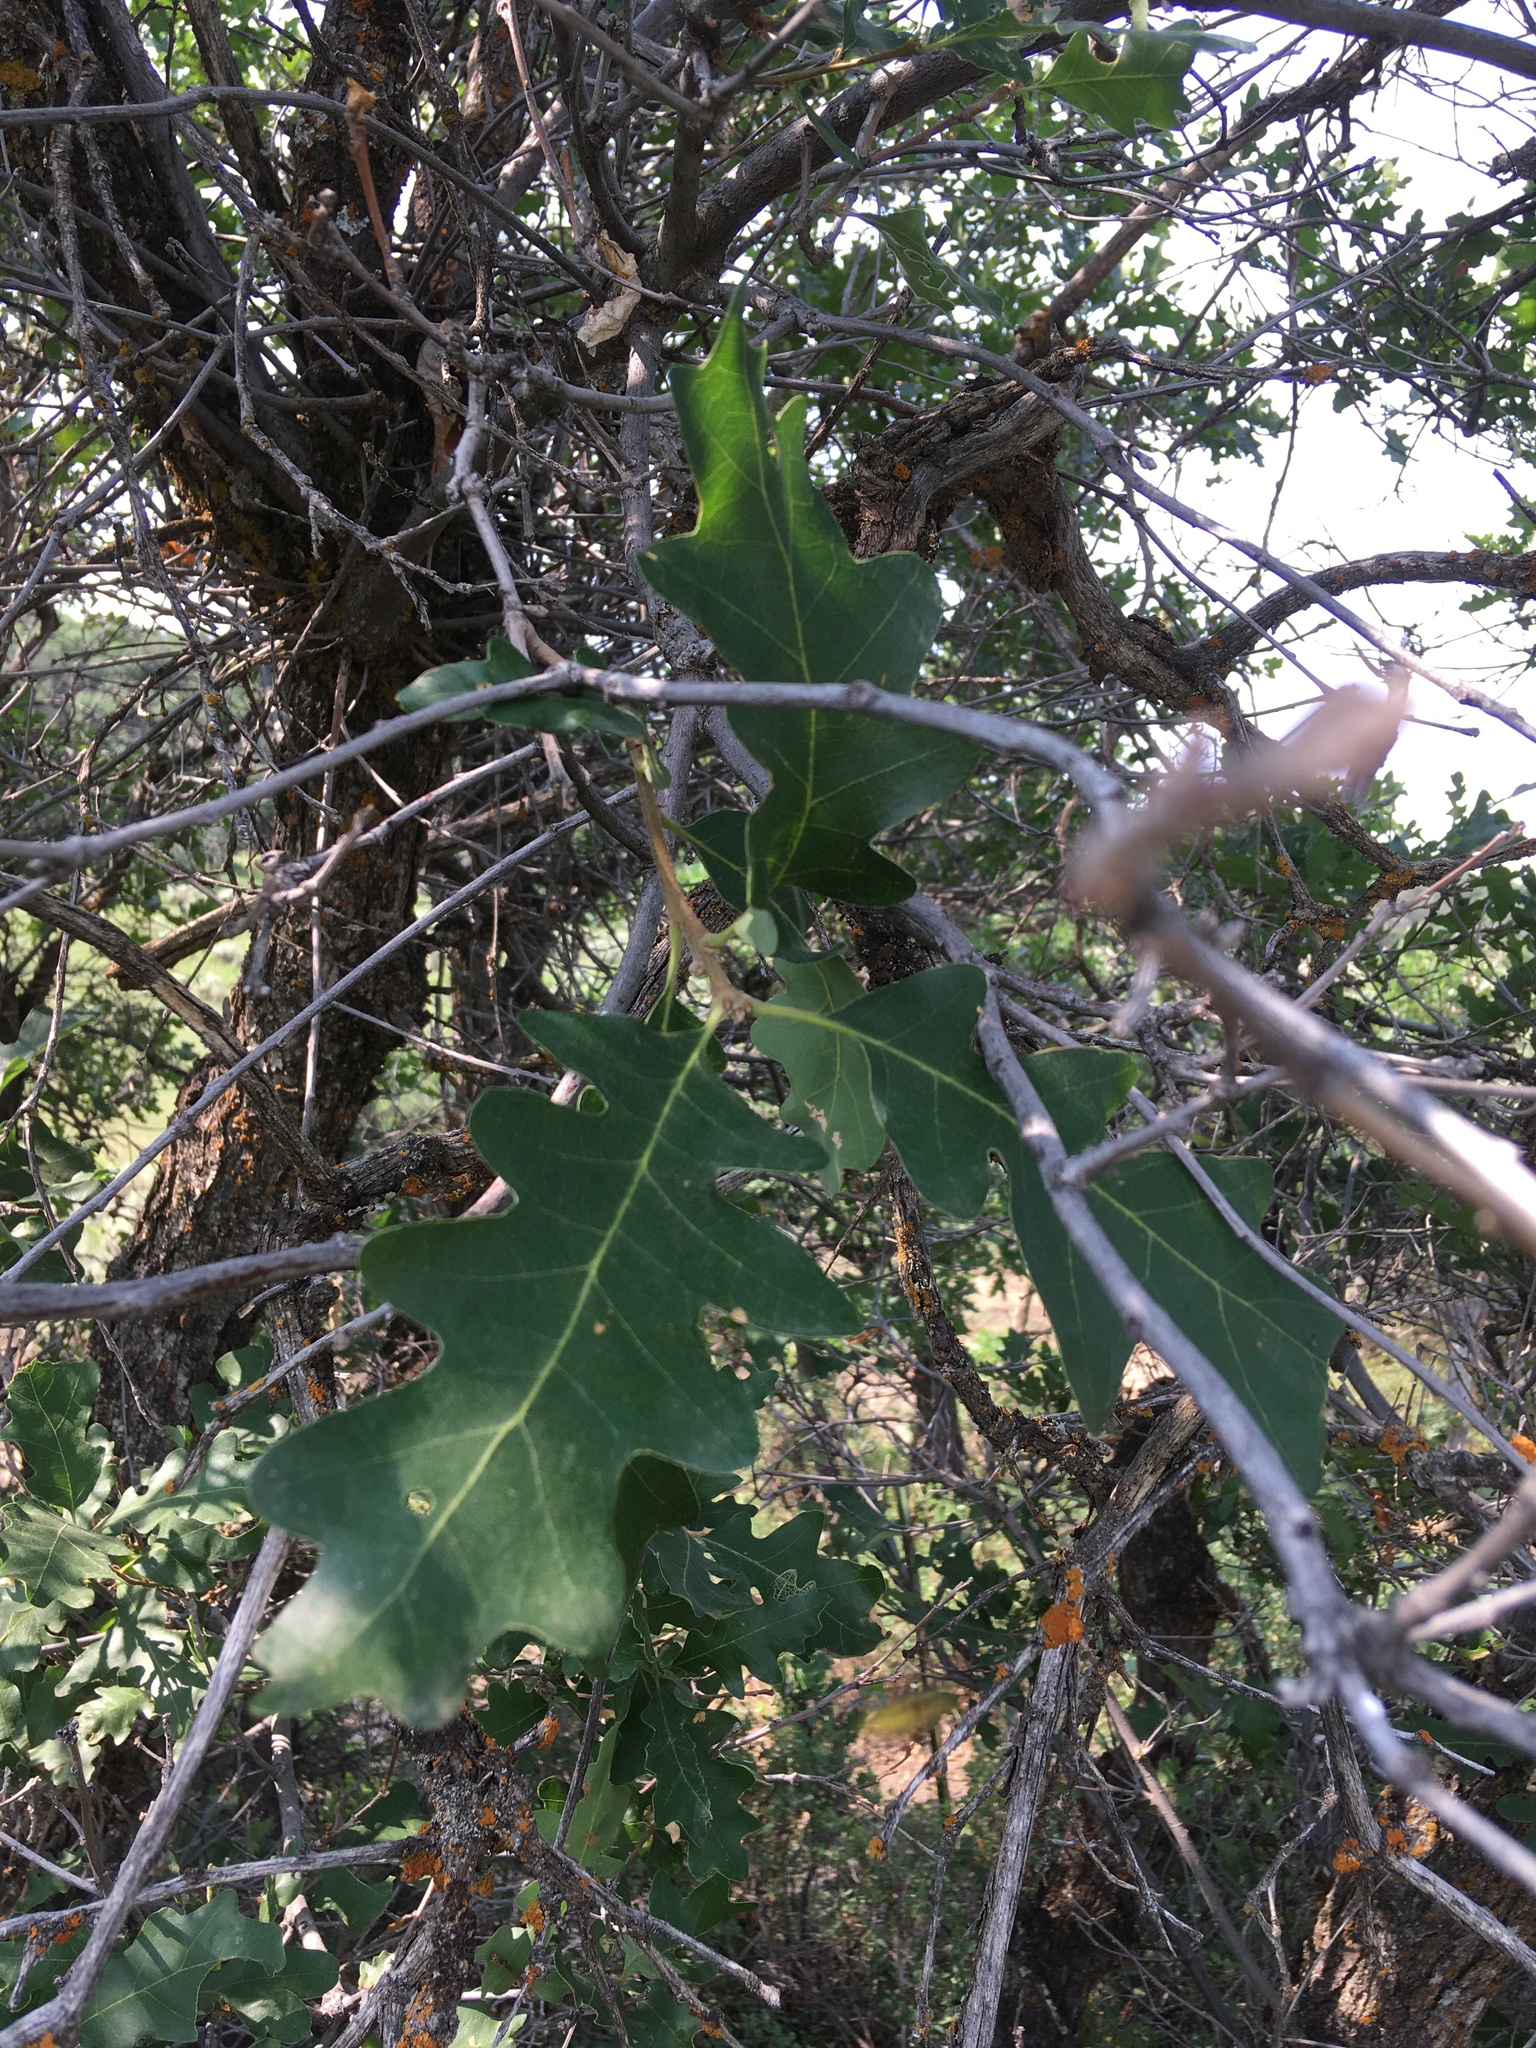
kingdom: Plantae
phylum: Tracheophyta
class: Magnoliopsida
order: Fagales
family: Fagaceae
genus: Quercus
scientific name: Quercus gambelii
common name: Gambel oak
